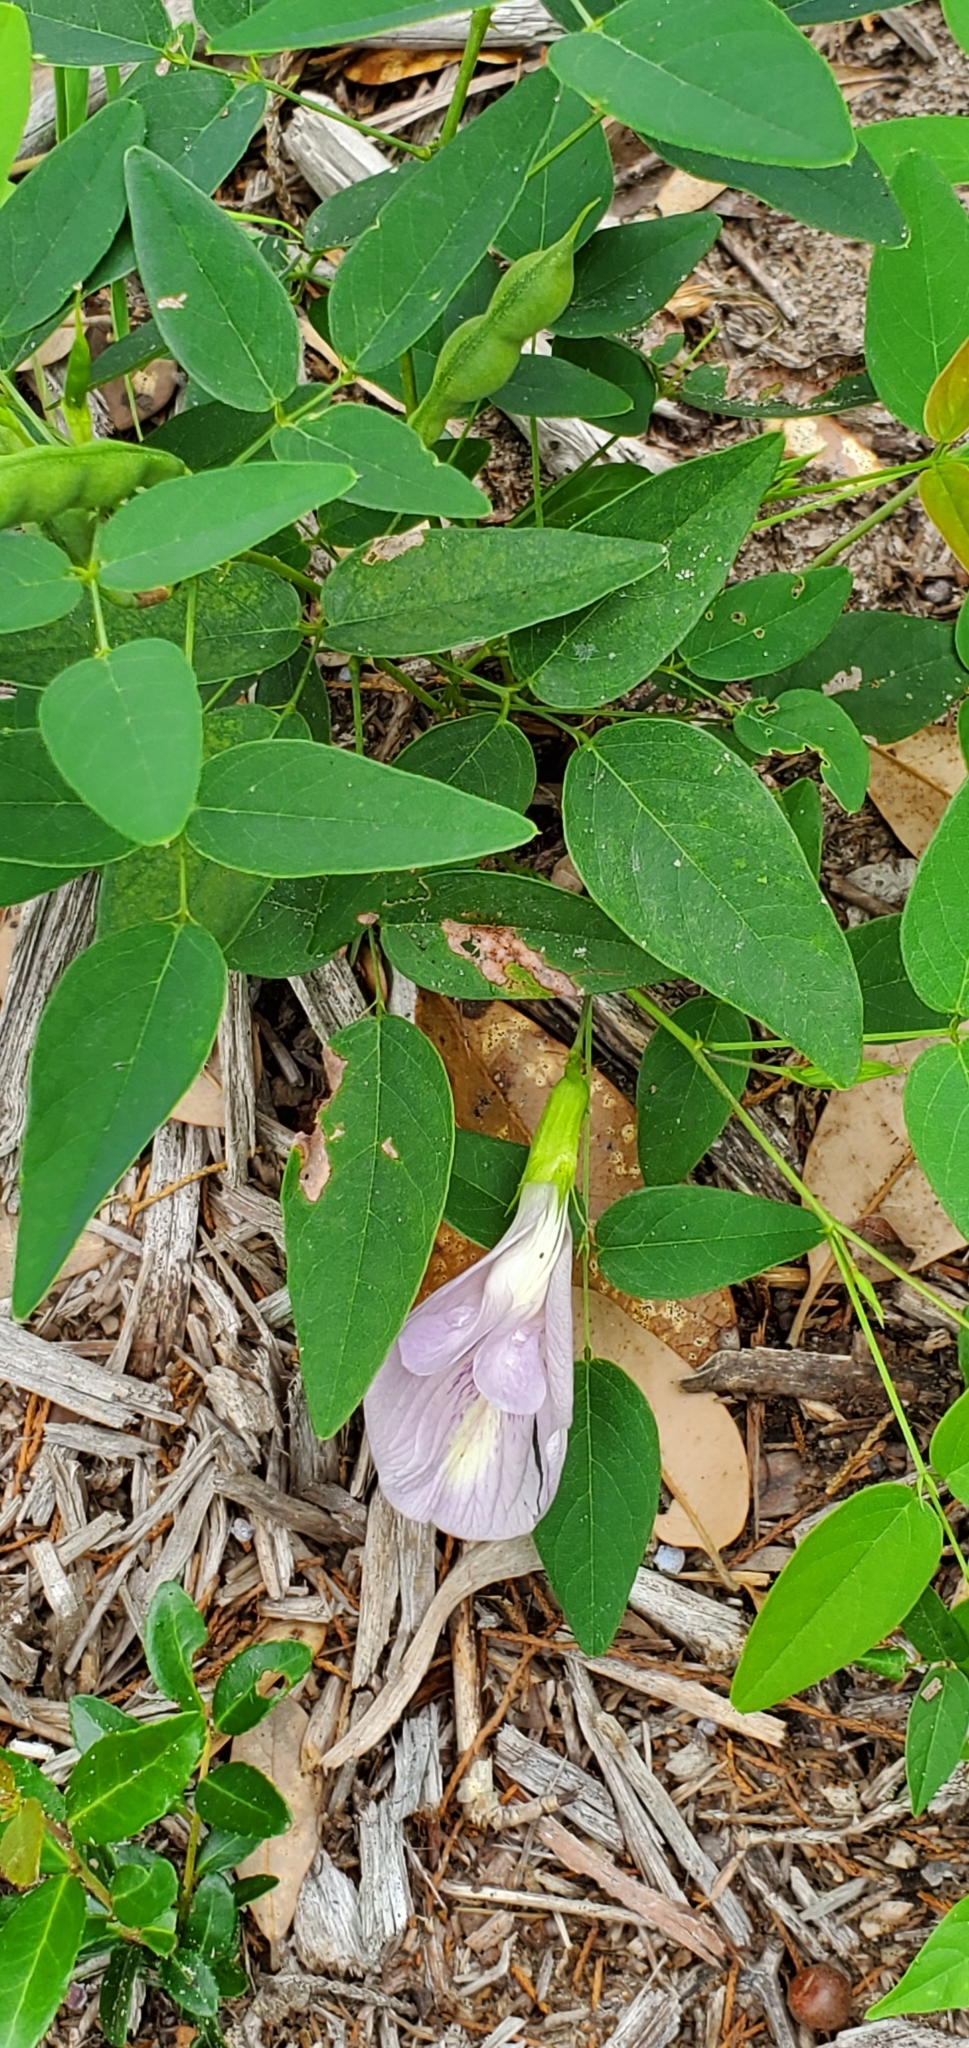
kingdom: Plantae
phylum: Tracheophyta
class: Magnoliopsida
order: Fabales
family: Fabaceae
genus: Clitoria
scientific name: Clitoria mariana
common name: Butterfly-pea
